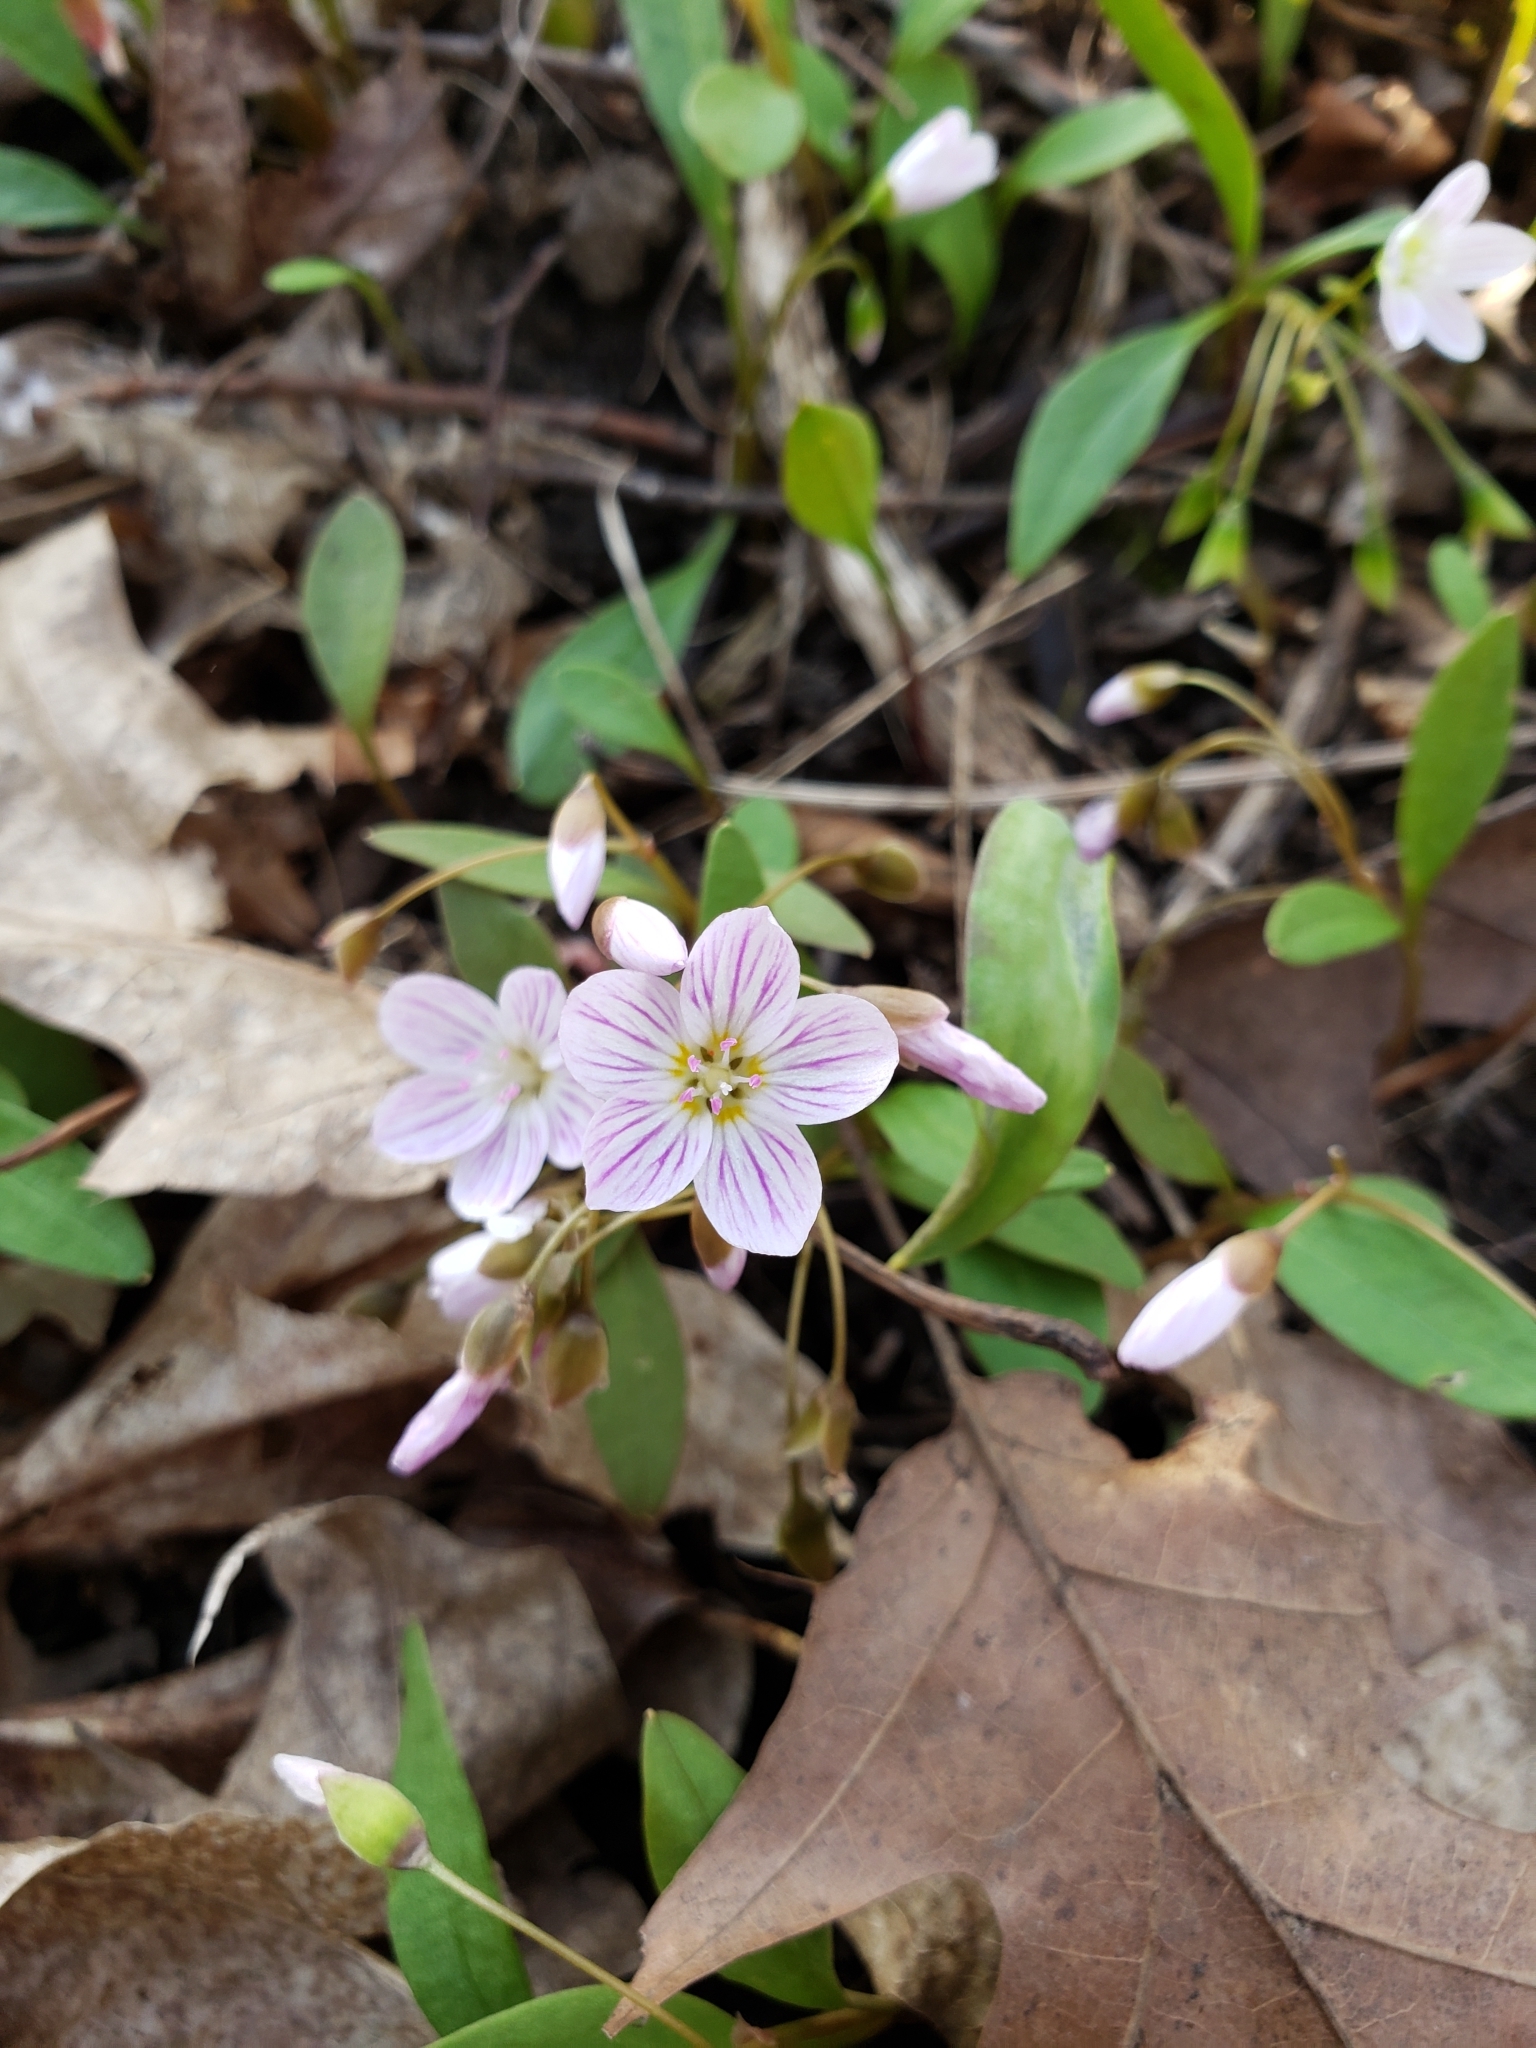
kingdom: Plantae
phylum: Tracheophyta
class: Magnoliopsida
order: Caryophyllales
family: Montiaceae
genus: Claytonia
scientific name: Claytonia caroliniana
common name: Carolina spring beauty
